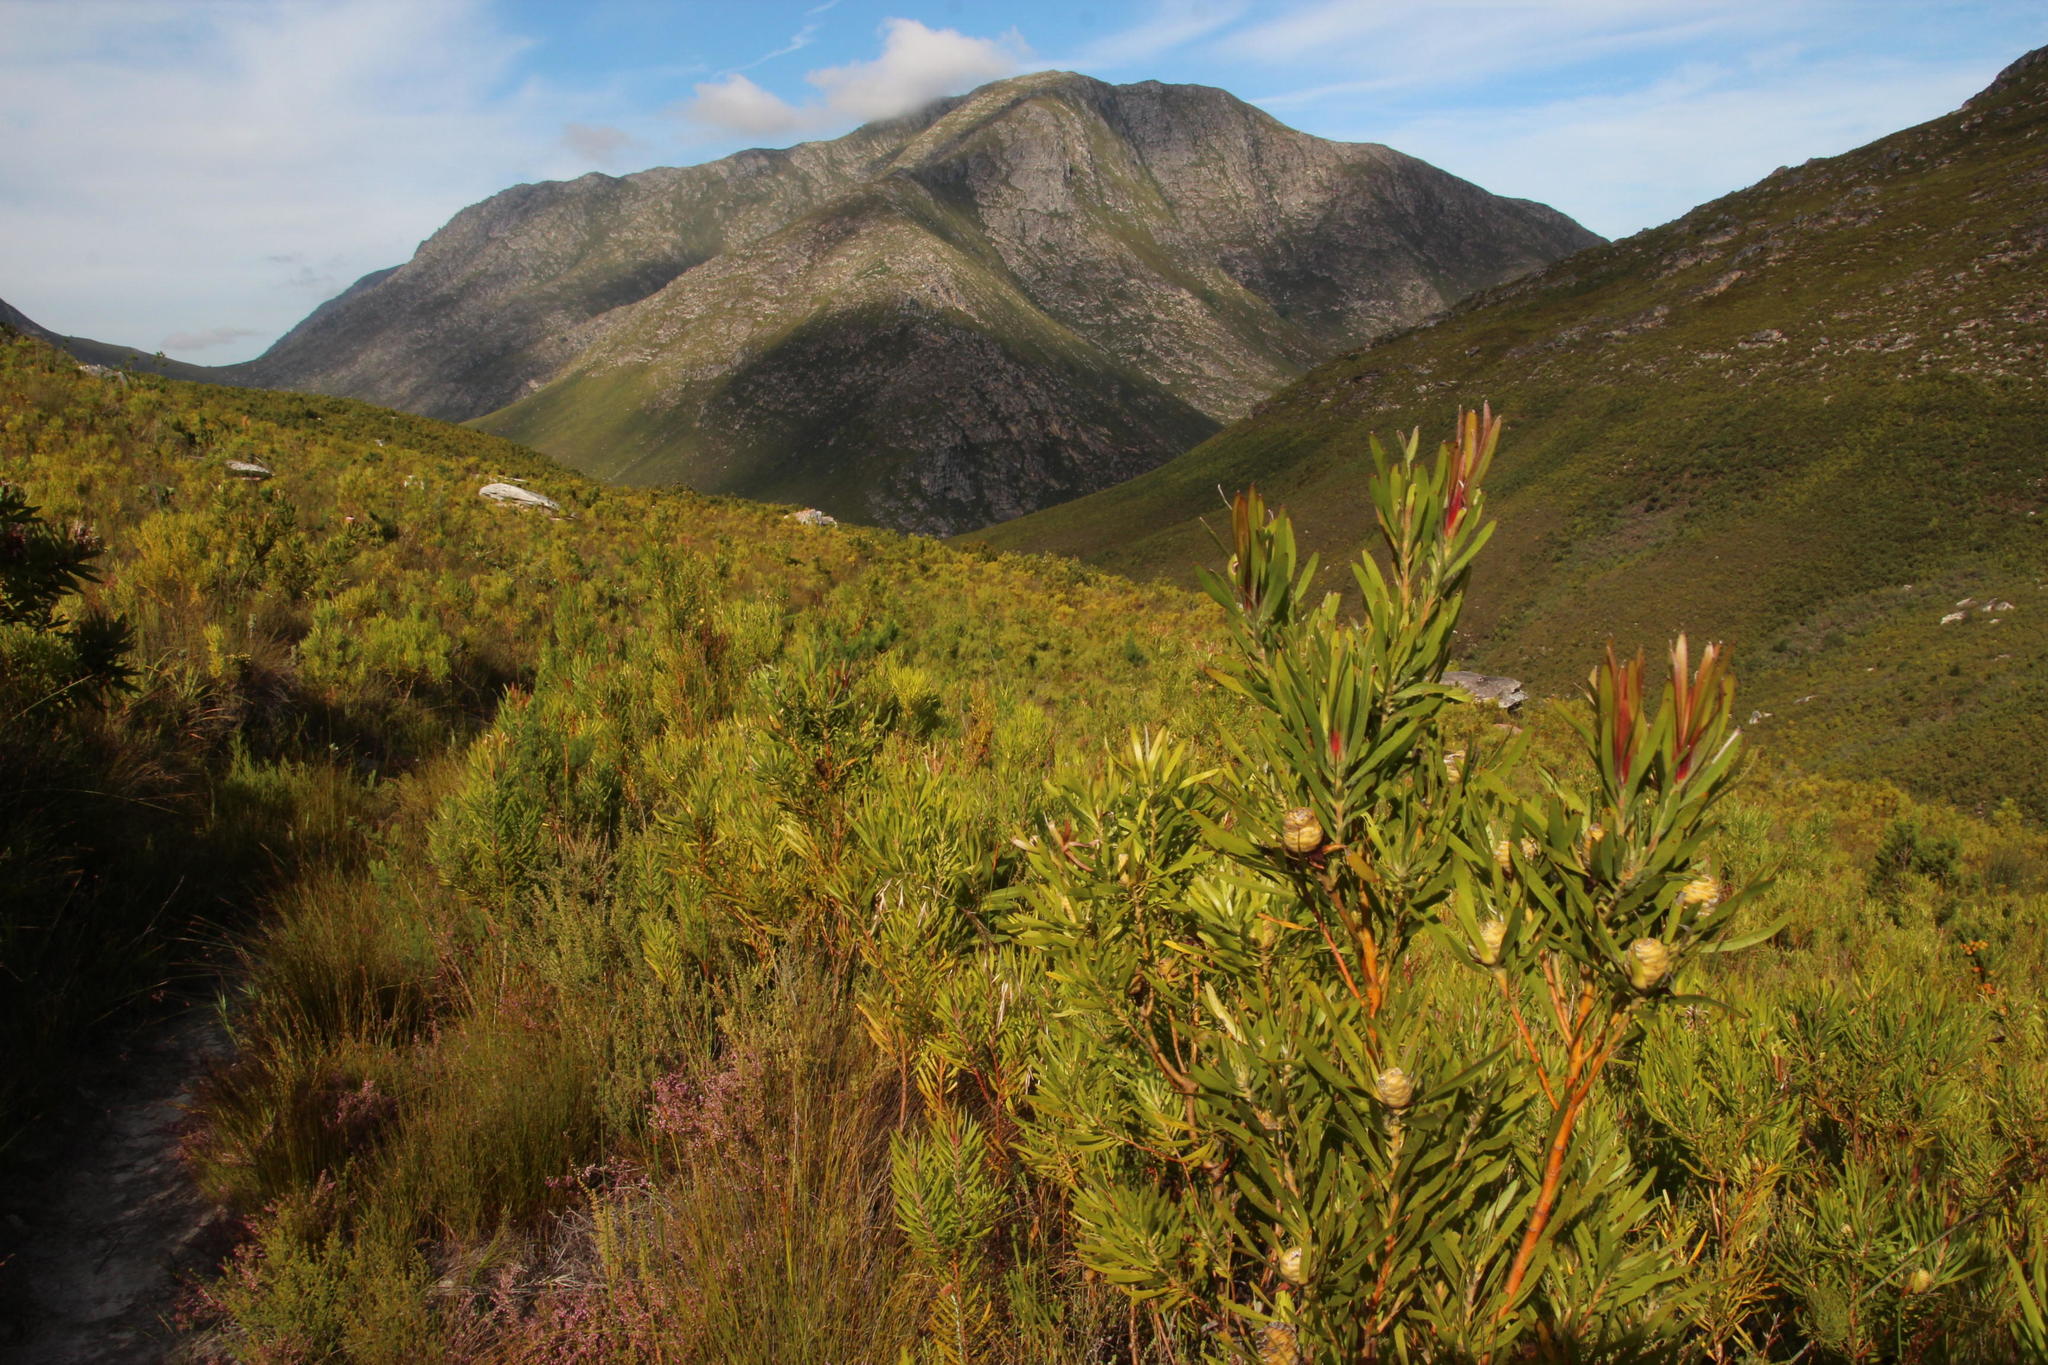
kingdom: Plantae
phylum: Tracheophyta
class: Magnoliopsida
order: Proteales
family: Proteaceae
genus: Leucadendron
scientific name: Leucadendron eucalyptifolium
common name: Gum-leaved conebush
